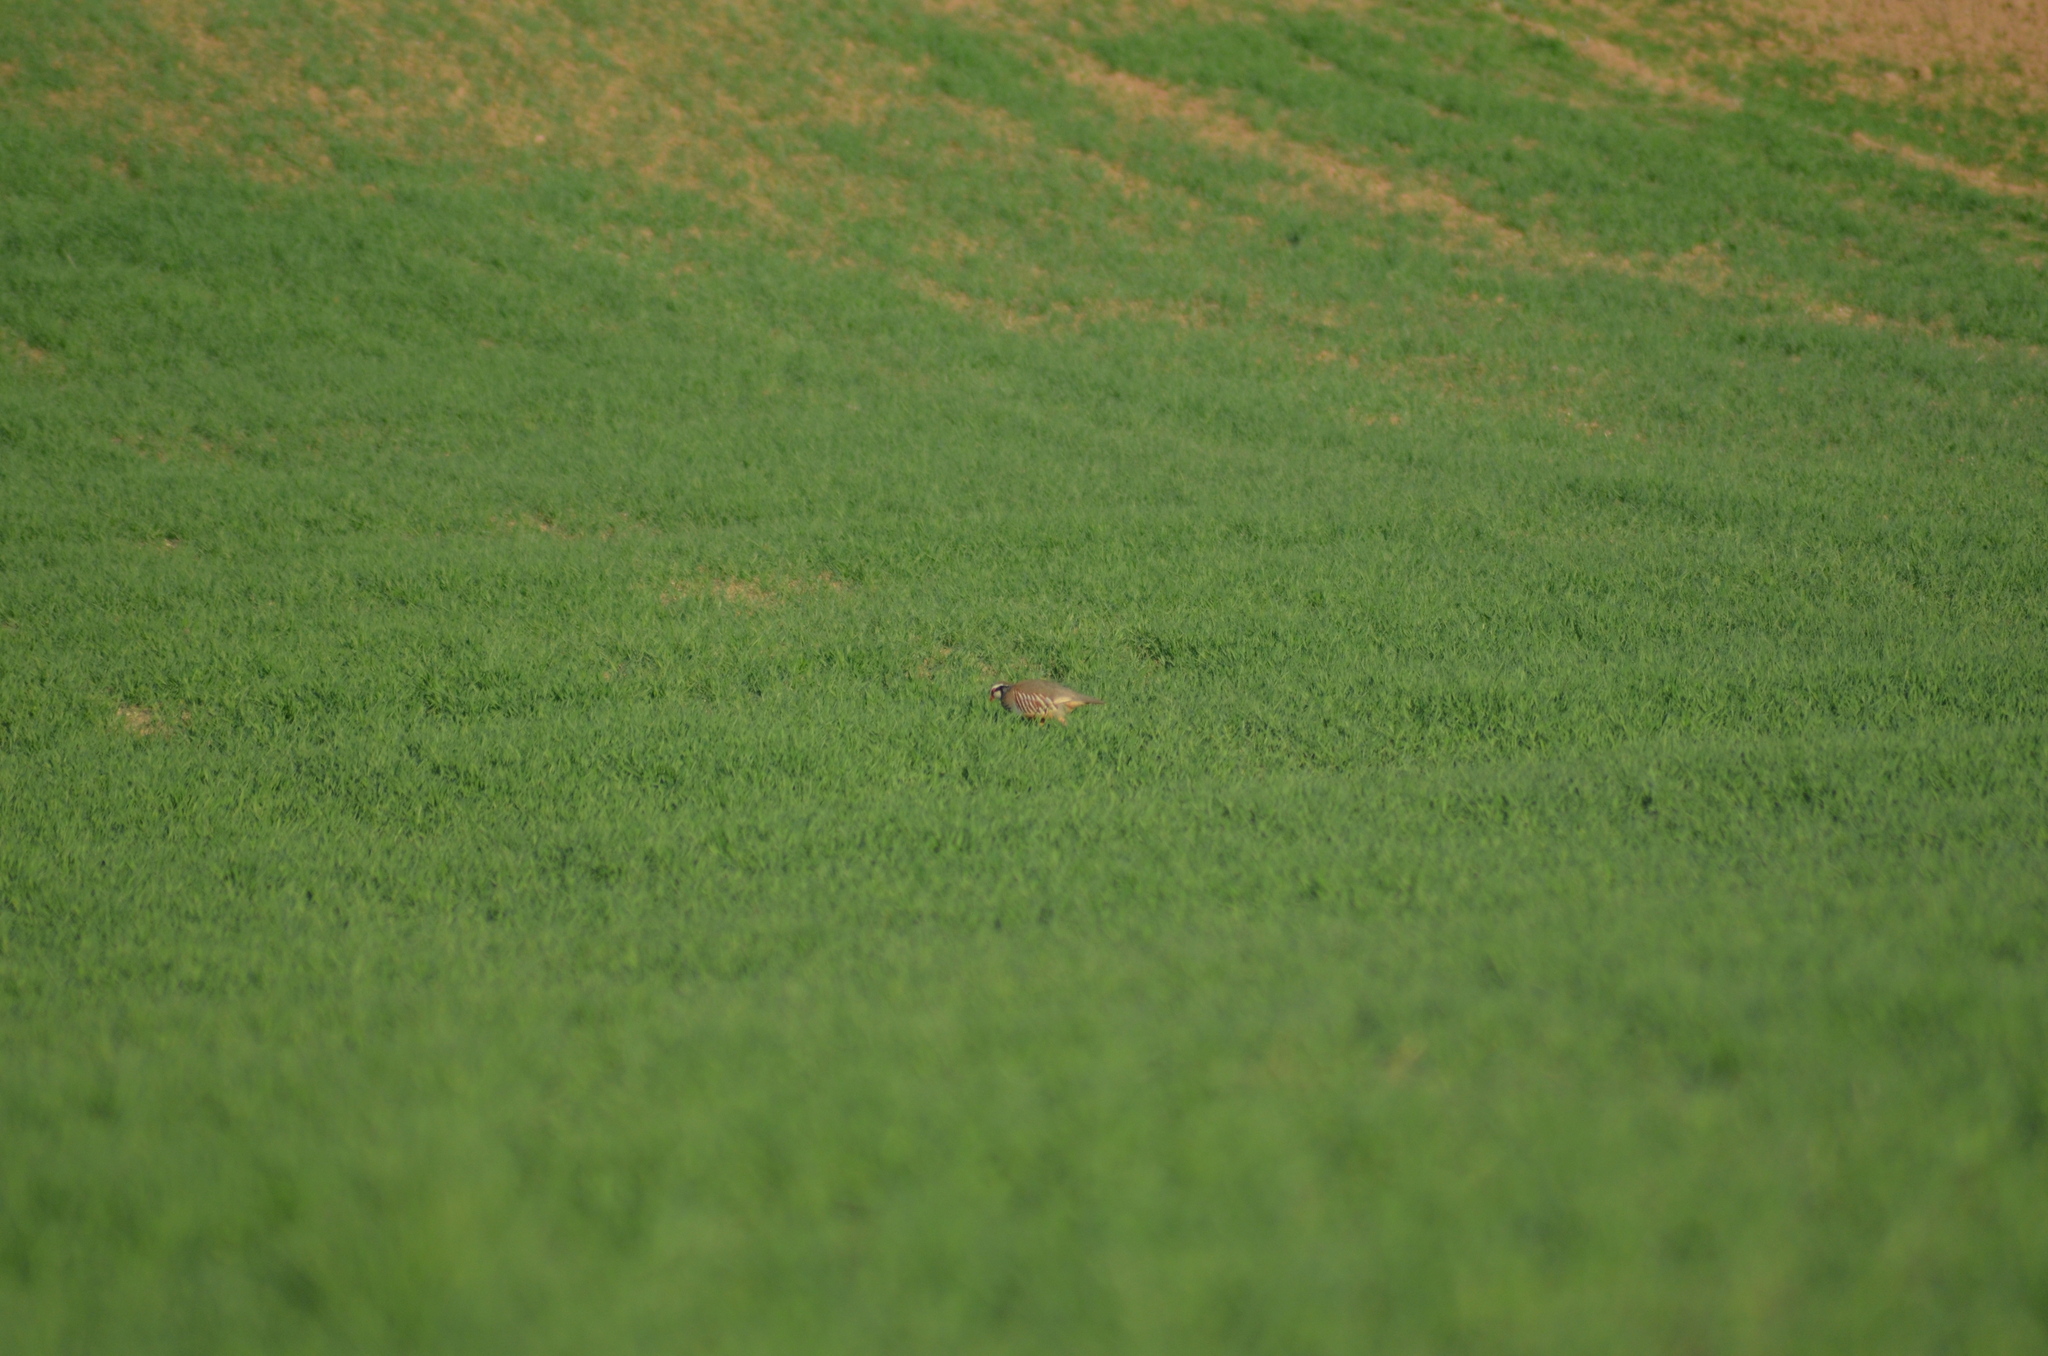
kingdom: Animalia
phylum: Chordata
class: Aves
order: Galliformes
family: Phasianidae
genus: Alectoris
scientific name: Alectoris rufa
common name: Red-legged partridge
